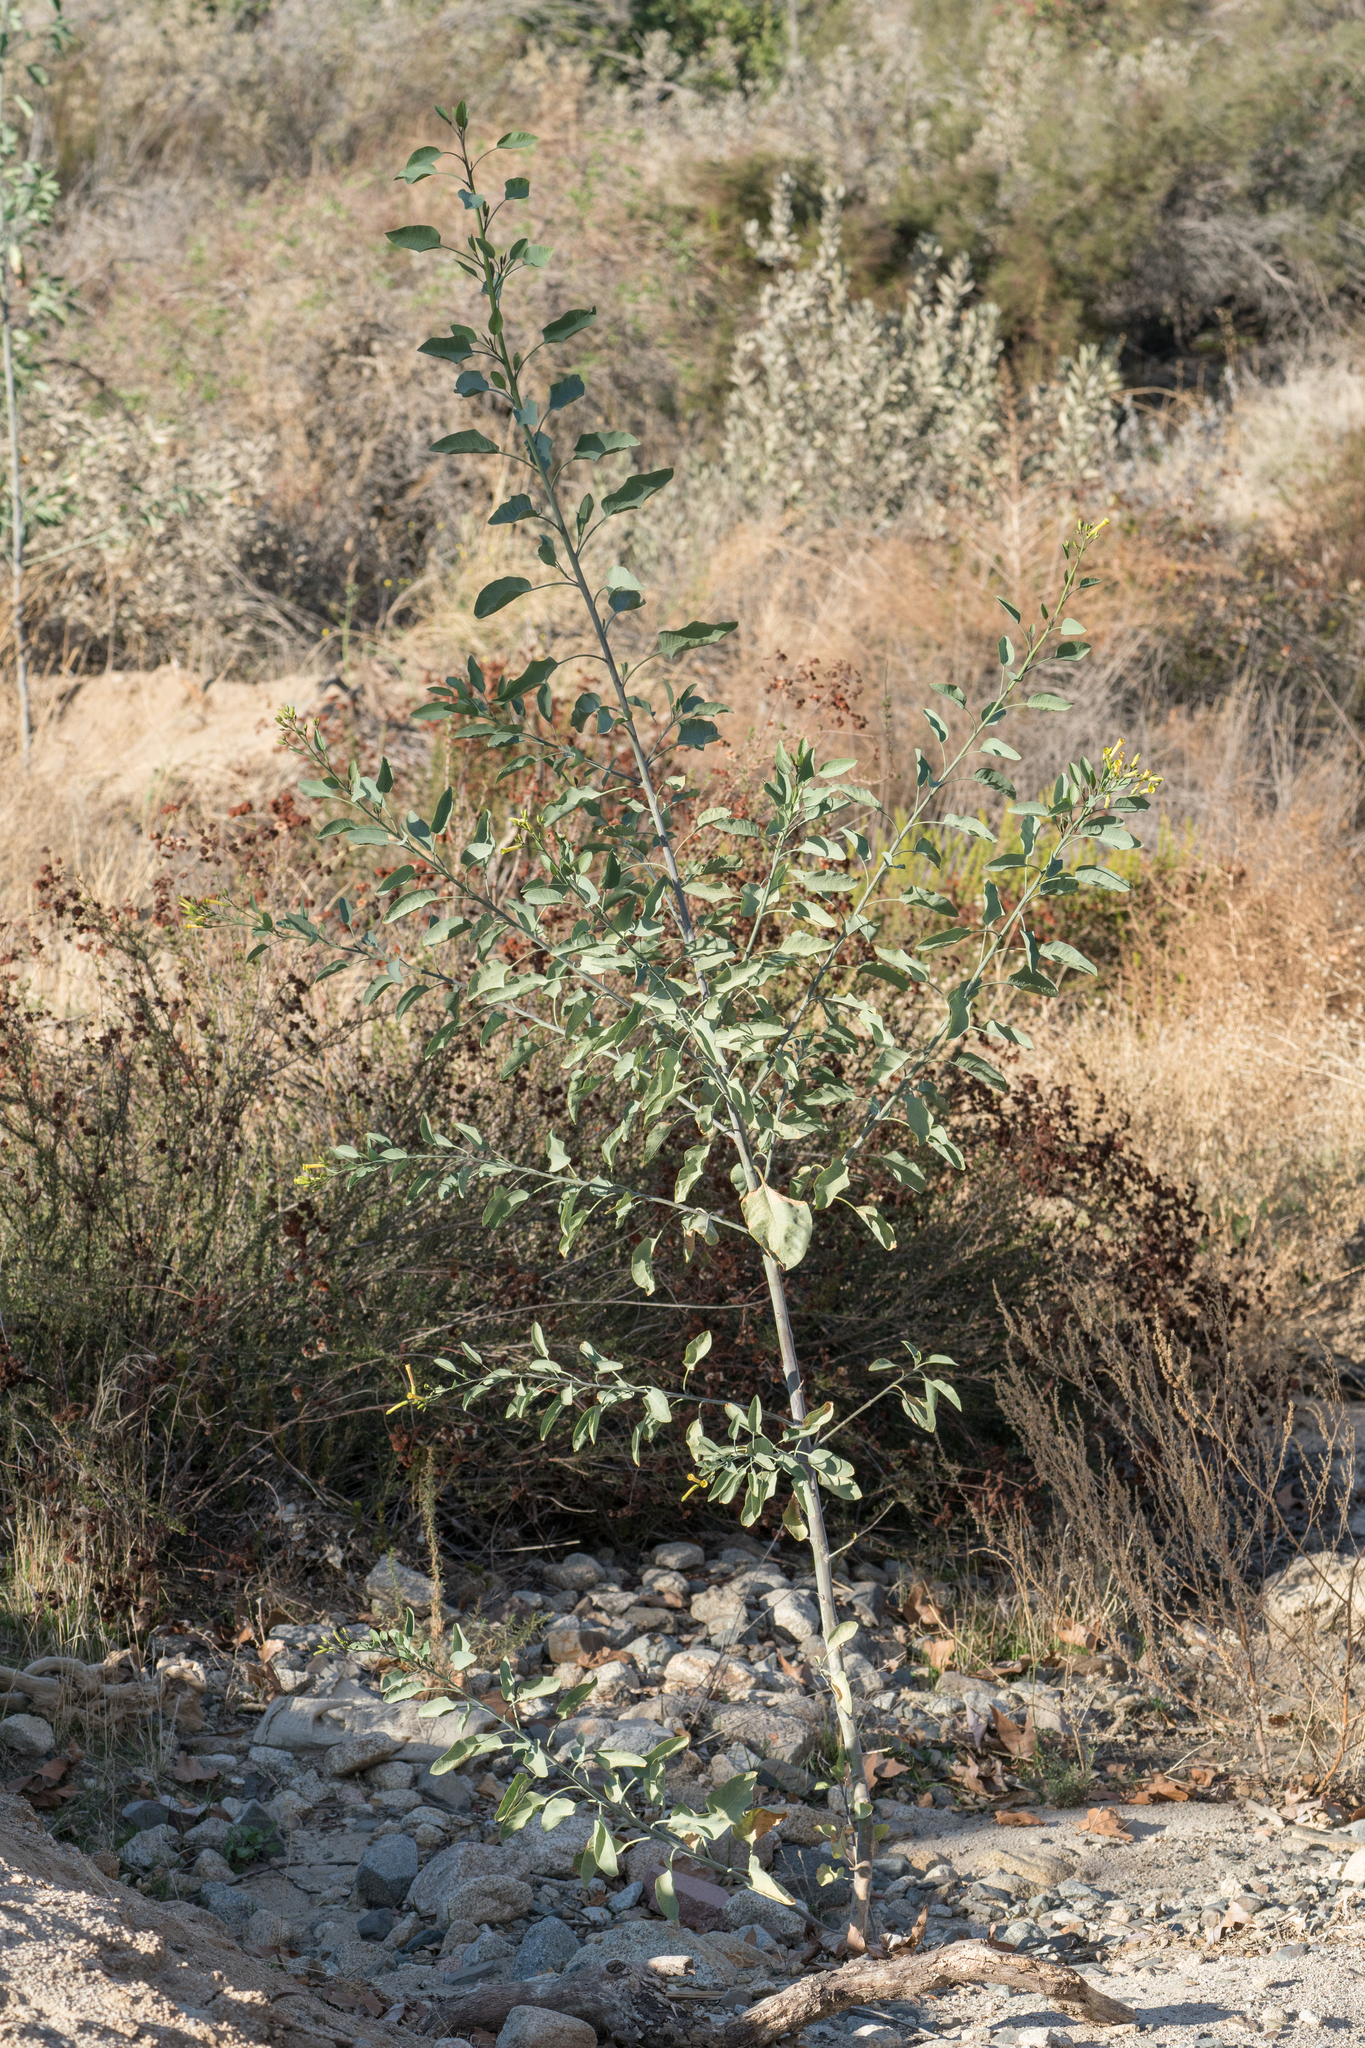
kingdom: Plantae
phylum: Tracheophyta
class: Magnoliopsida
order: Solanales
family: Solanaceae
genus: Nicotiana
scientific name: Nicotiana glauca
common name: Tree tobacco
